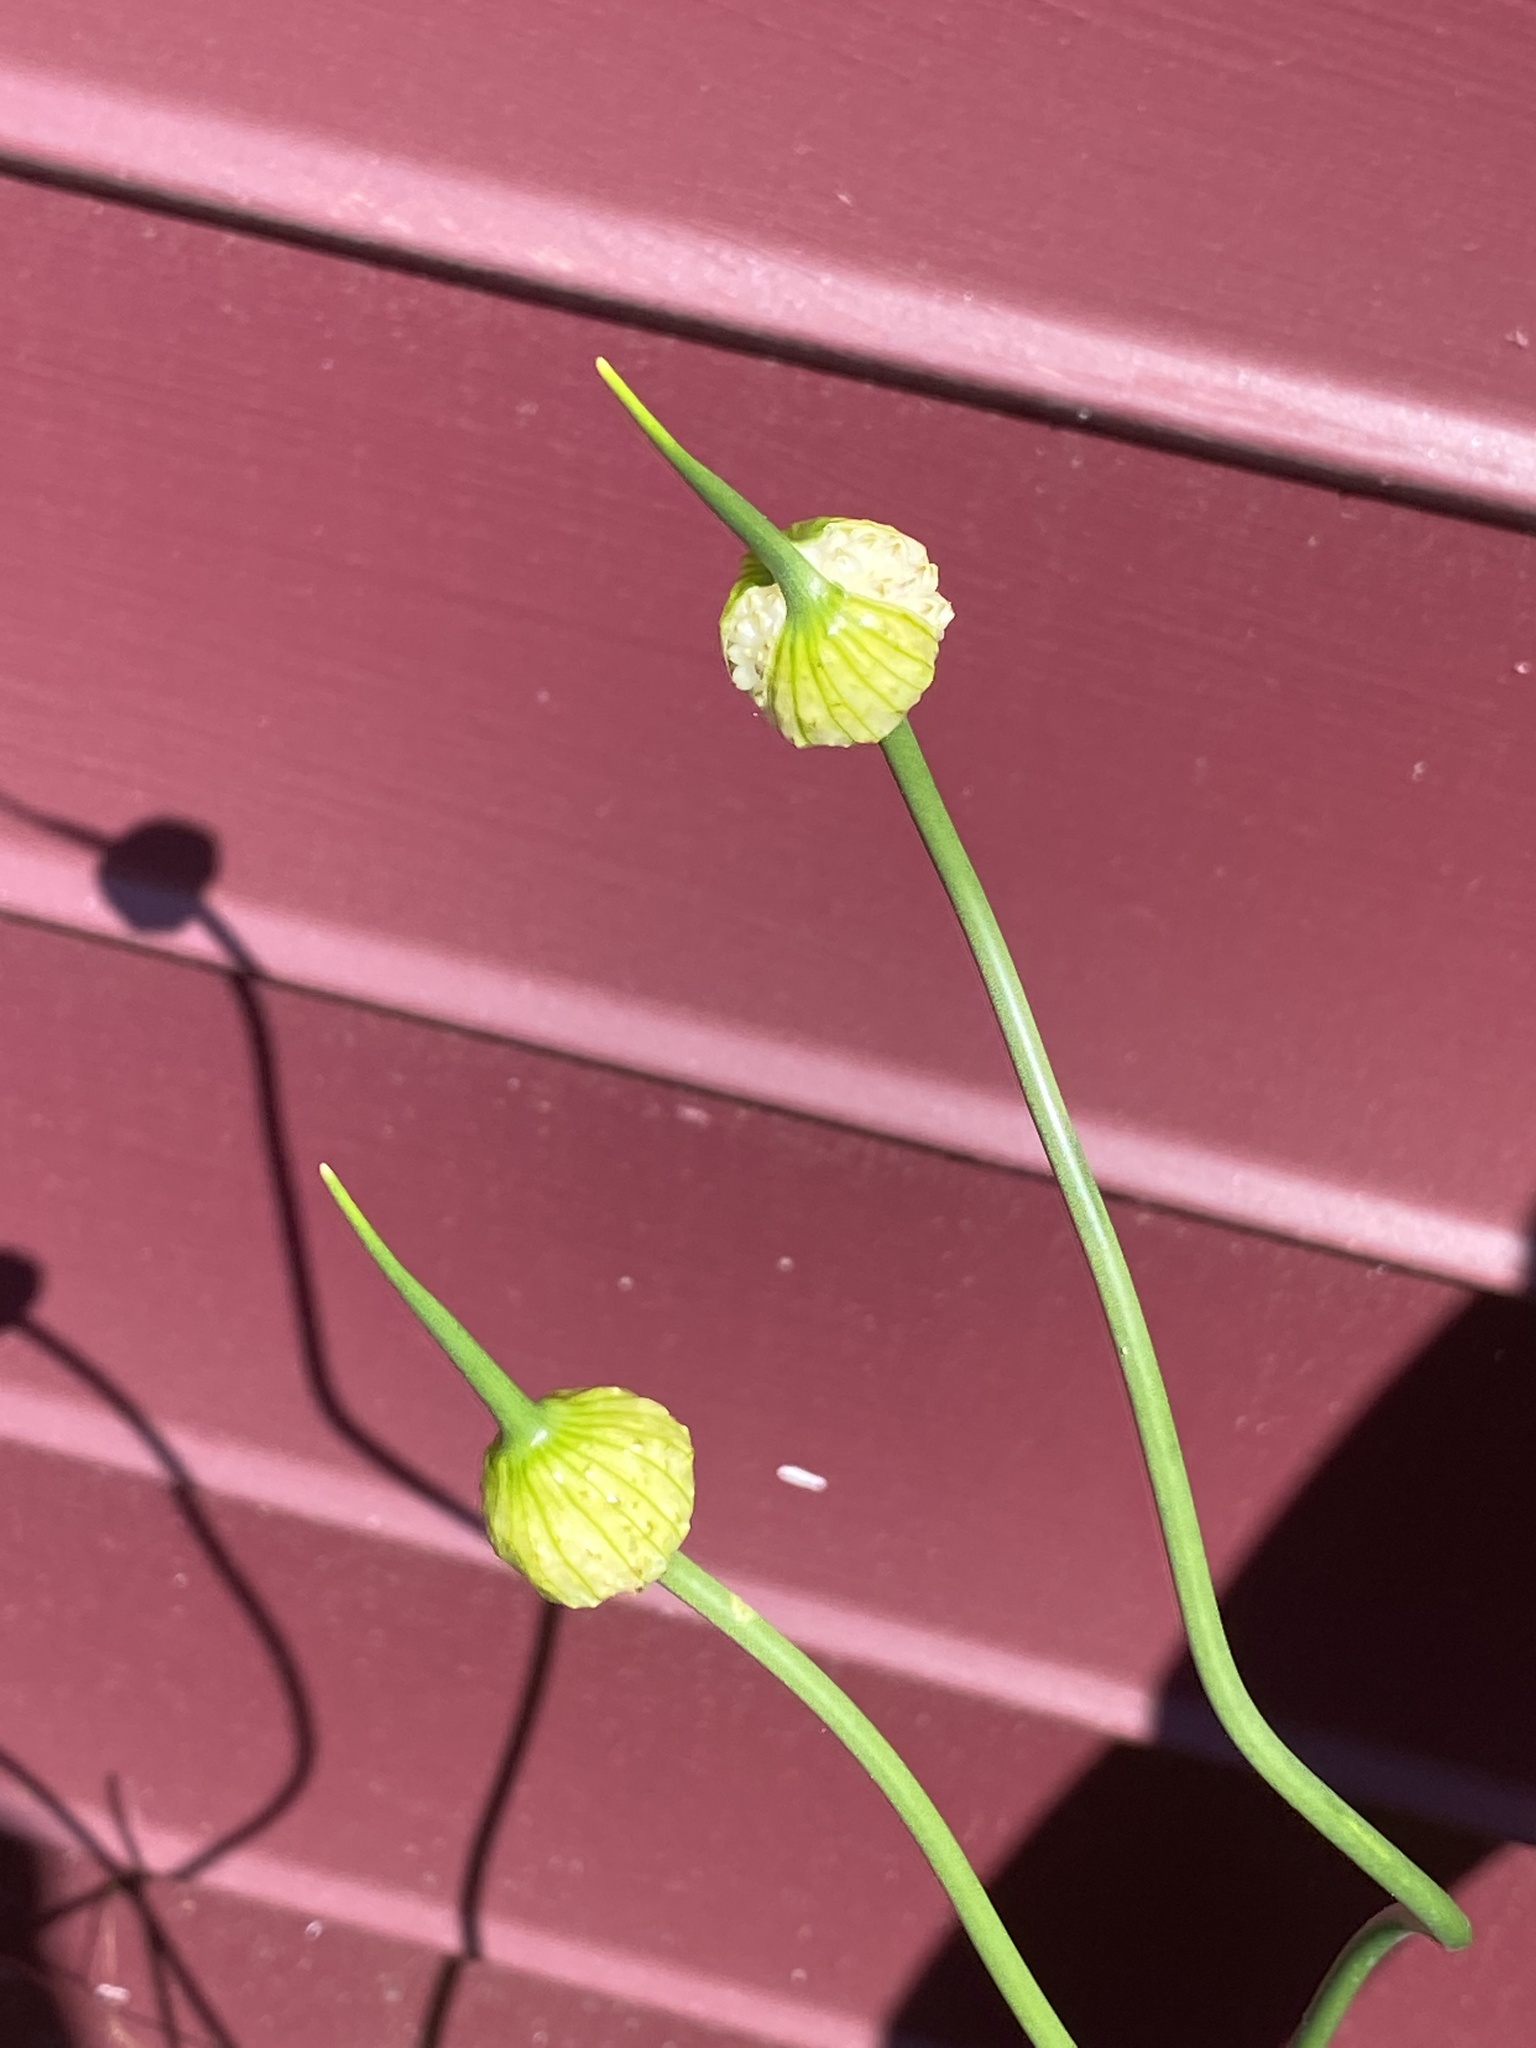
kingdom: Plantae
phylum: Tracheophyta
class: Liliopsida
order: Asparagales
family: Amaryllidaceae
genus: Allium
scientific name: Allium vineale
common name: Crow garlic
